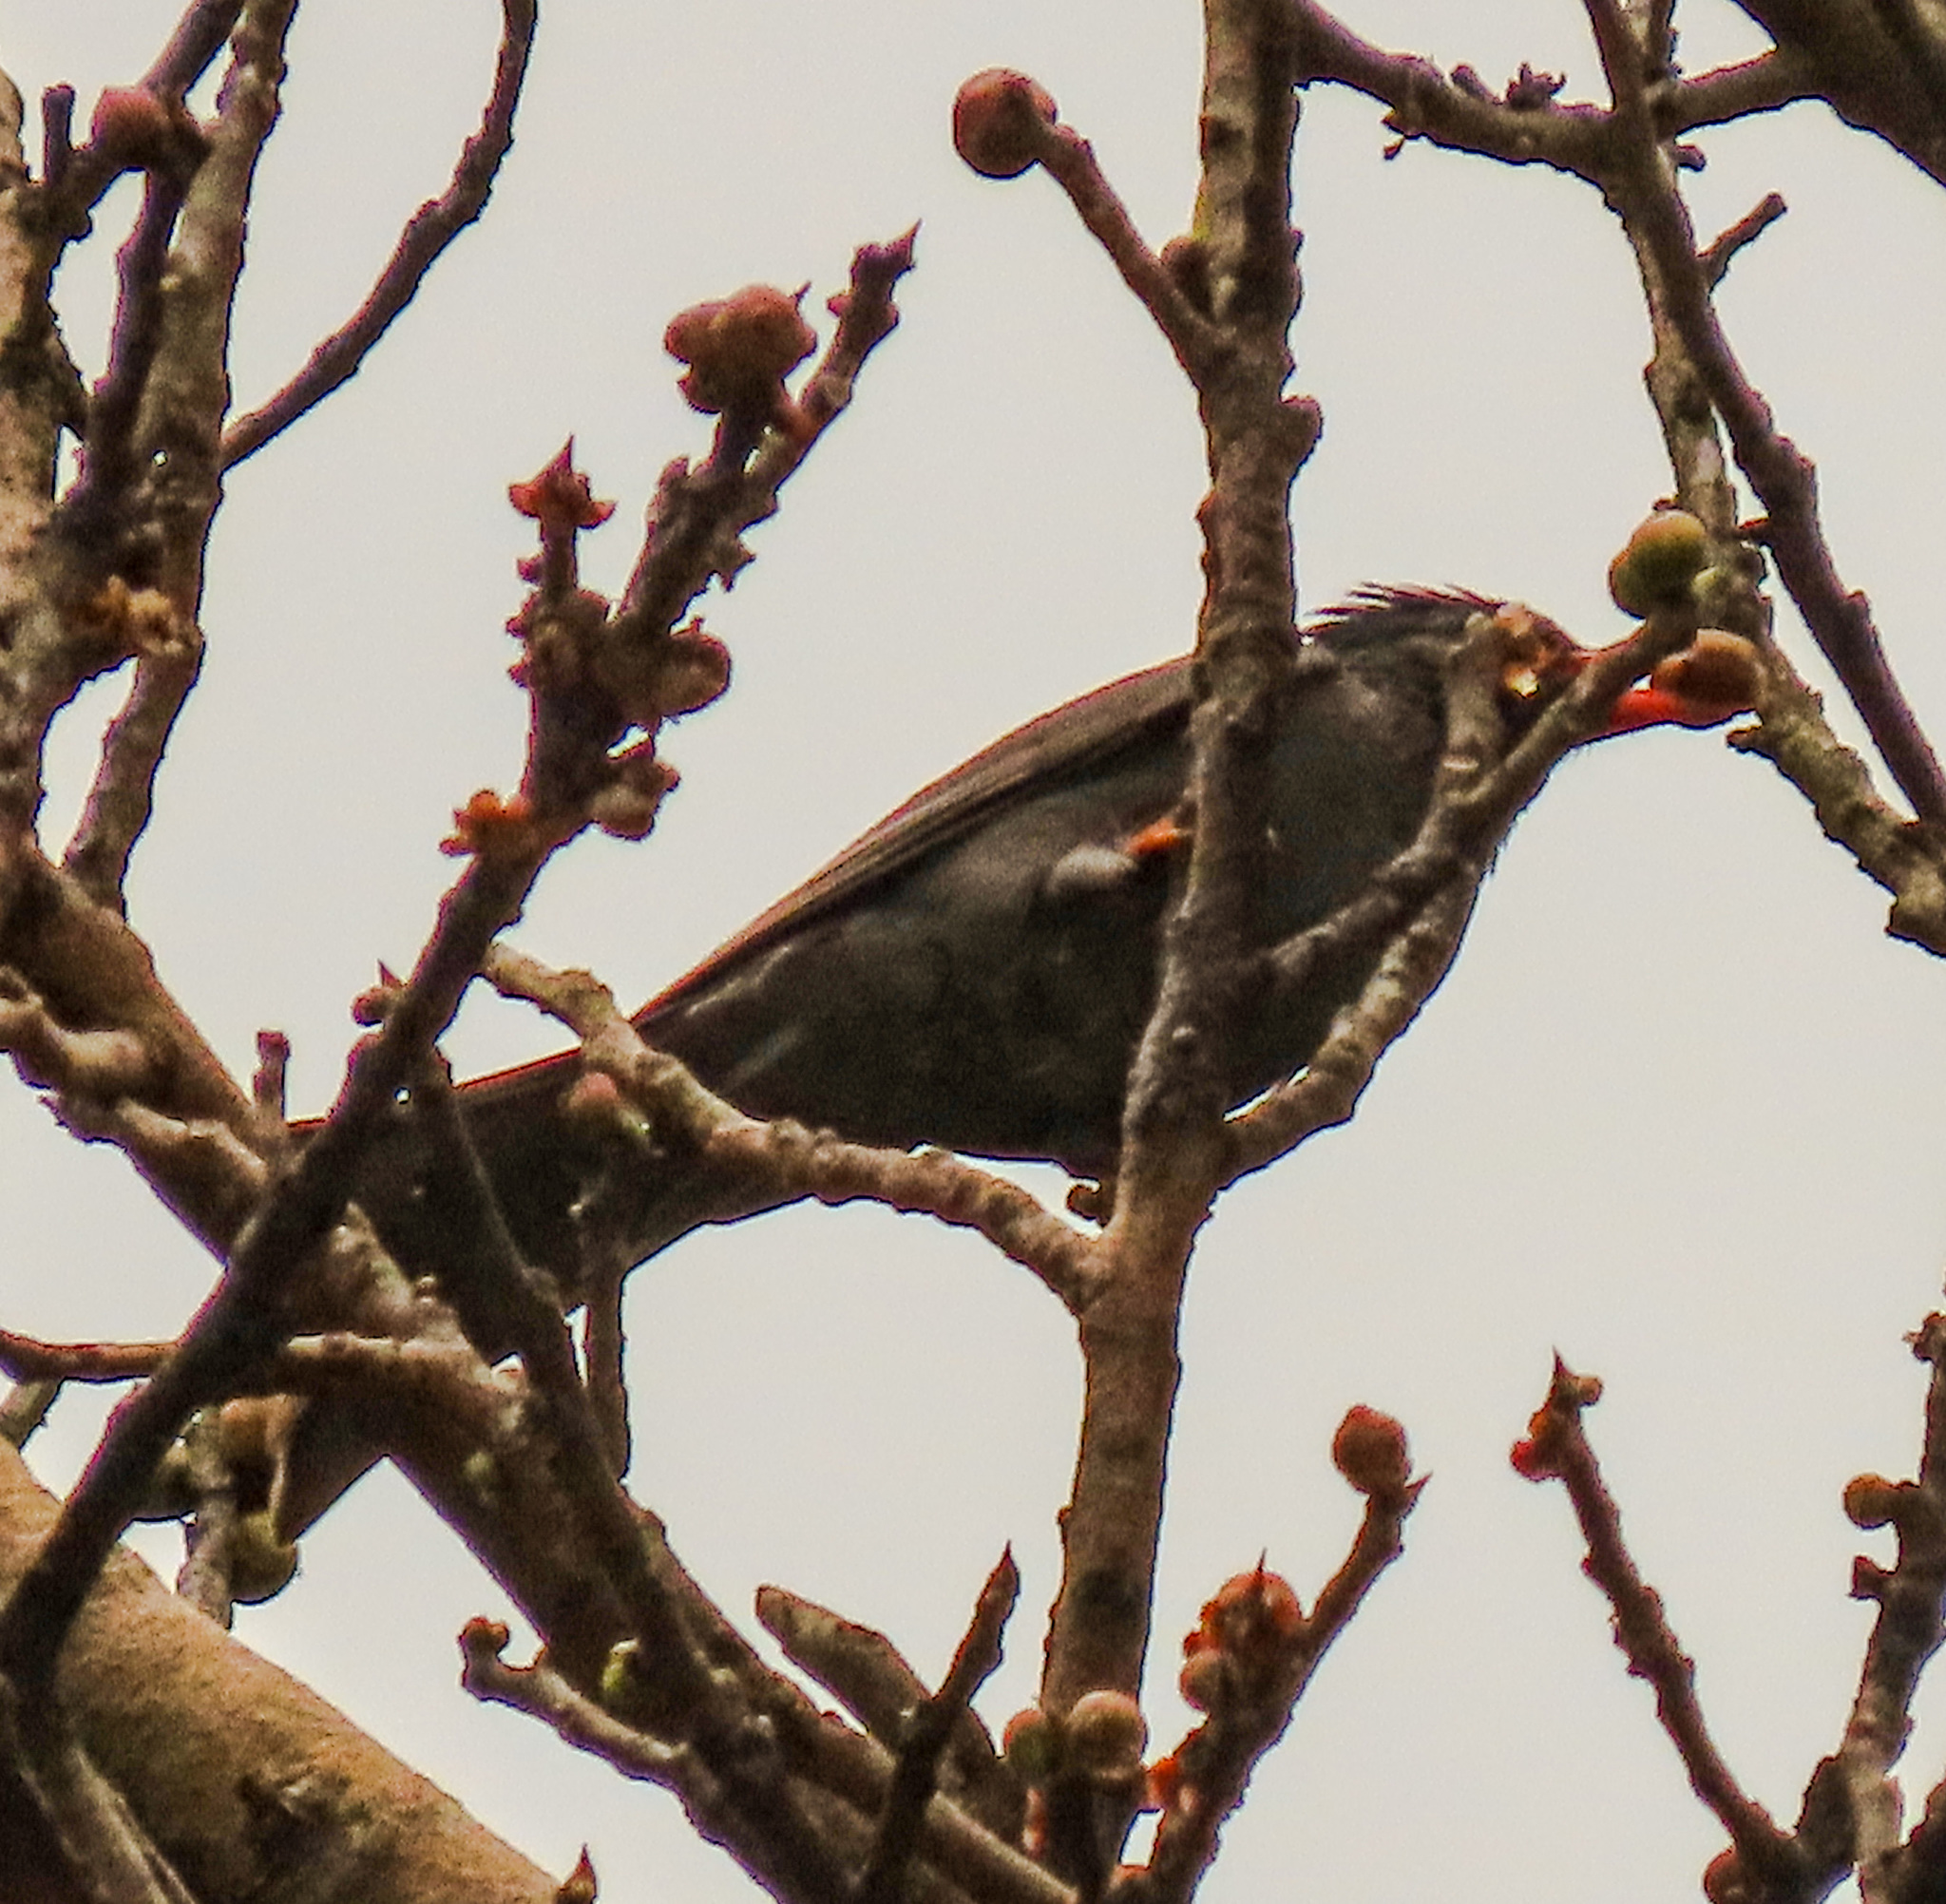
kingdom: Animalia
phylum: Chordata
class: Aves
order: Passeriformes
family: Pycnonotidae
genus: Hypsipetes
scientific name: Hypsipetes leucocephalus
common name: Black bulbul
